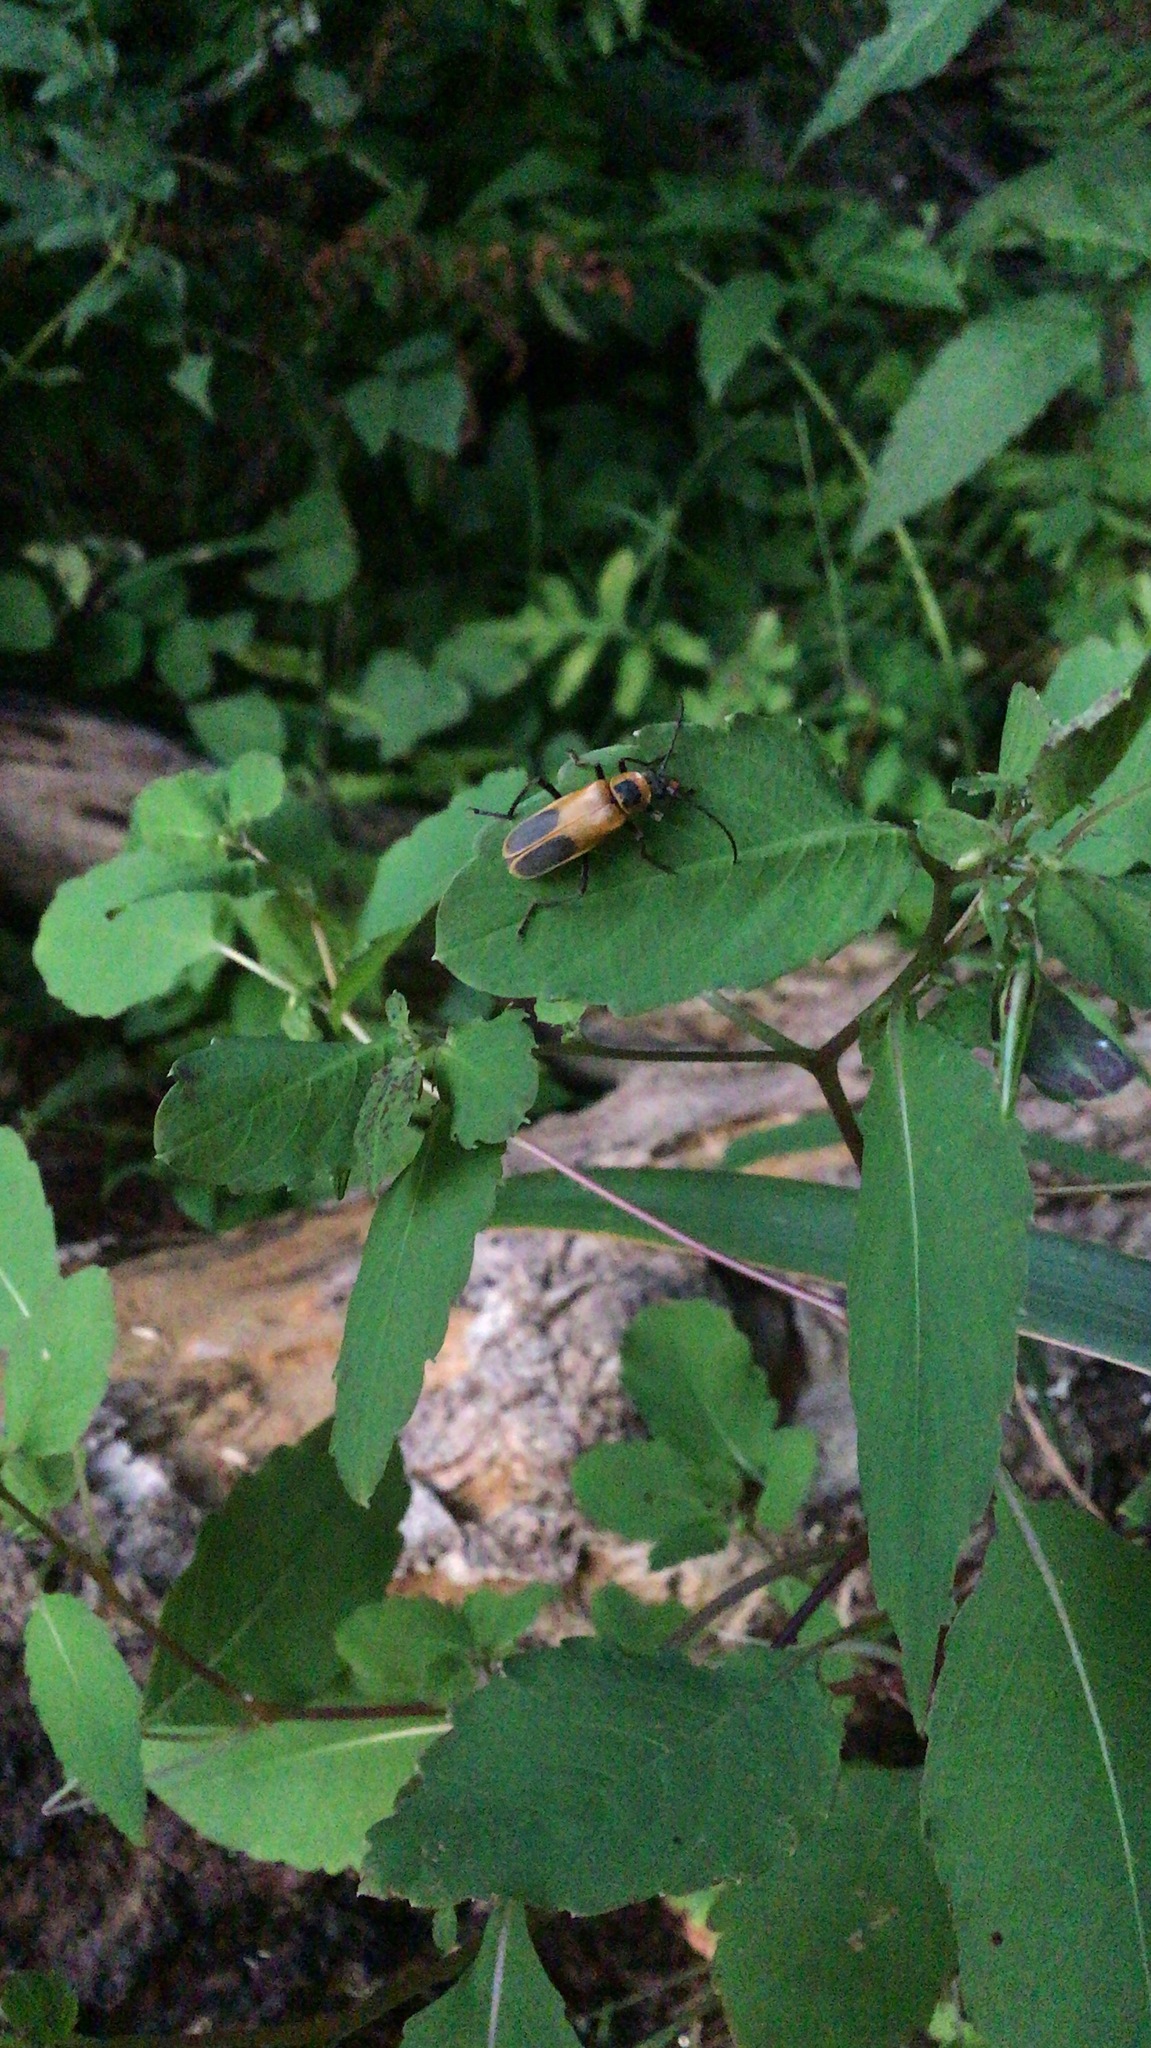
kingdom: Animalia
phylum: Arthropoda
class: Insecta
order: Coleoptera
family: Cantharidae
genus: Chauliognathus
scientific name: Chauliognathus pensylvanicus
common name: Goldenrod soldier beetle
